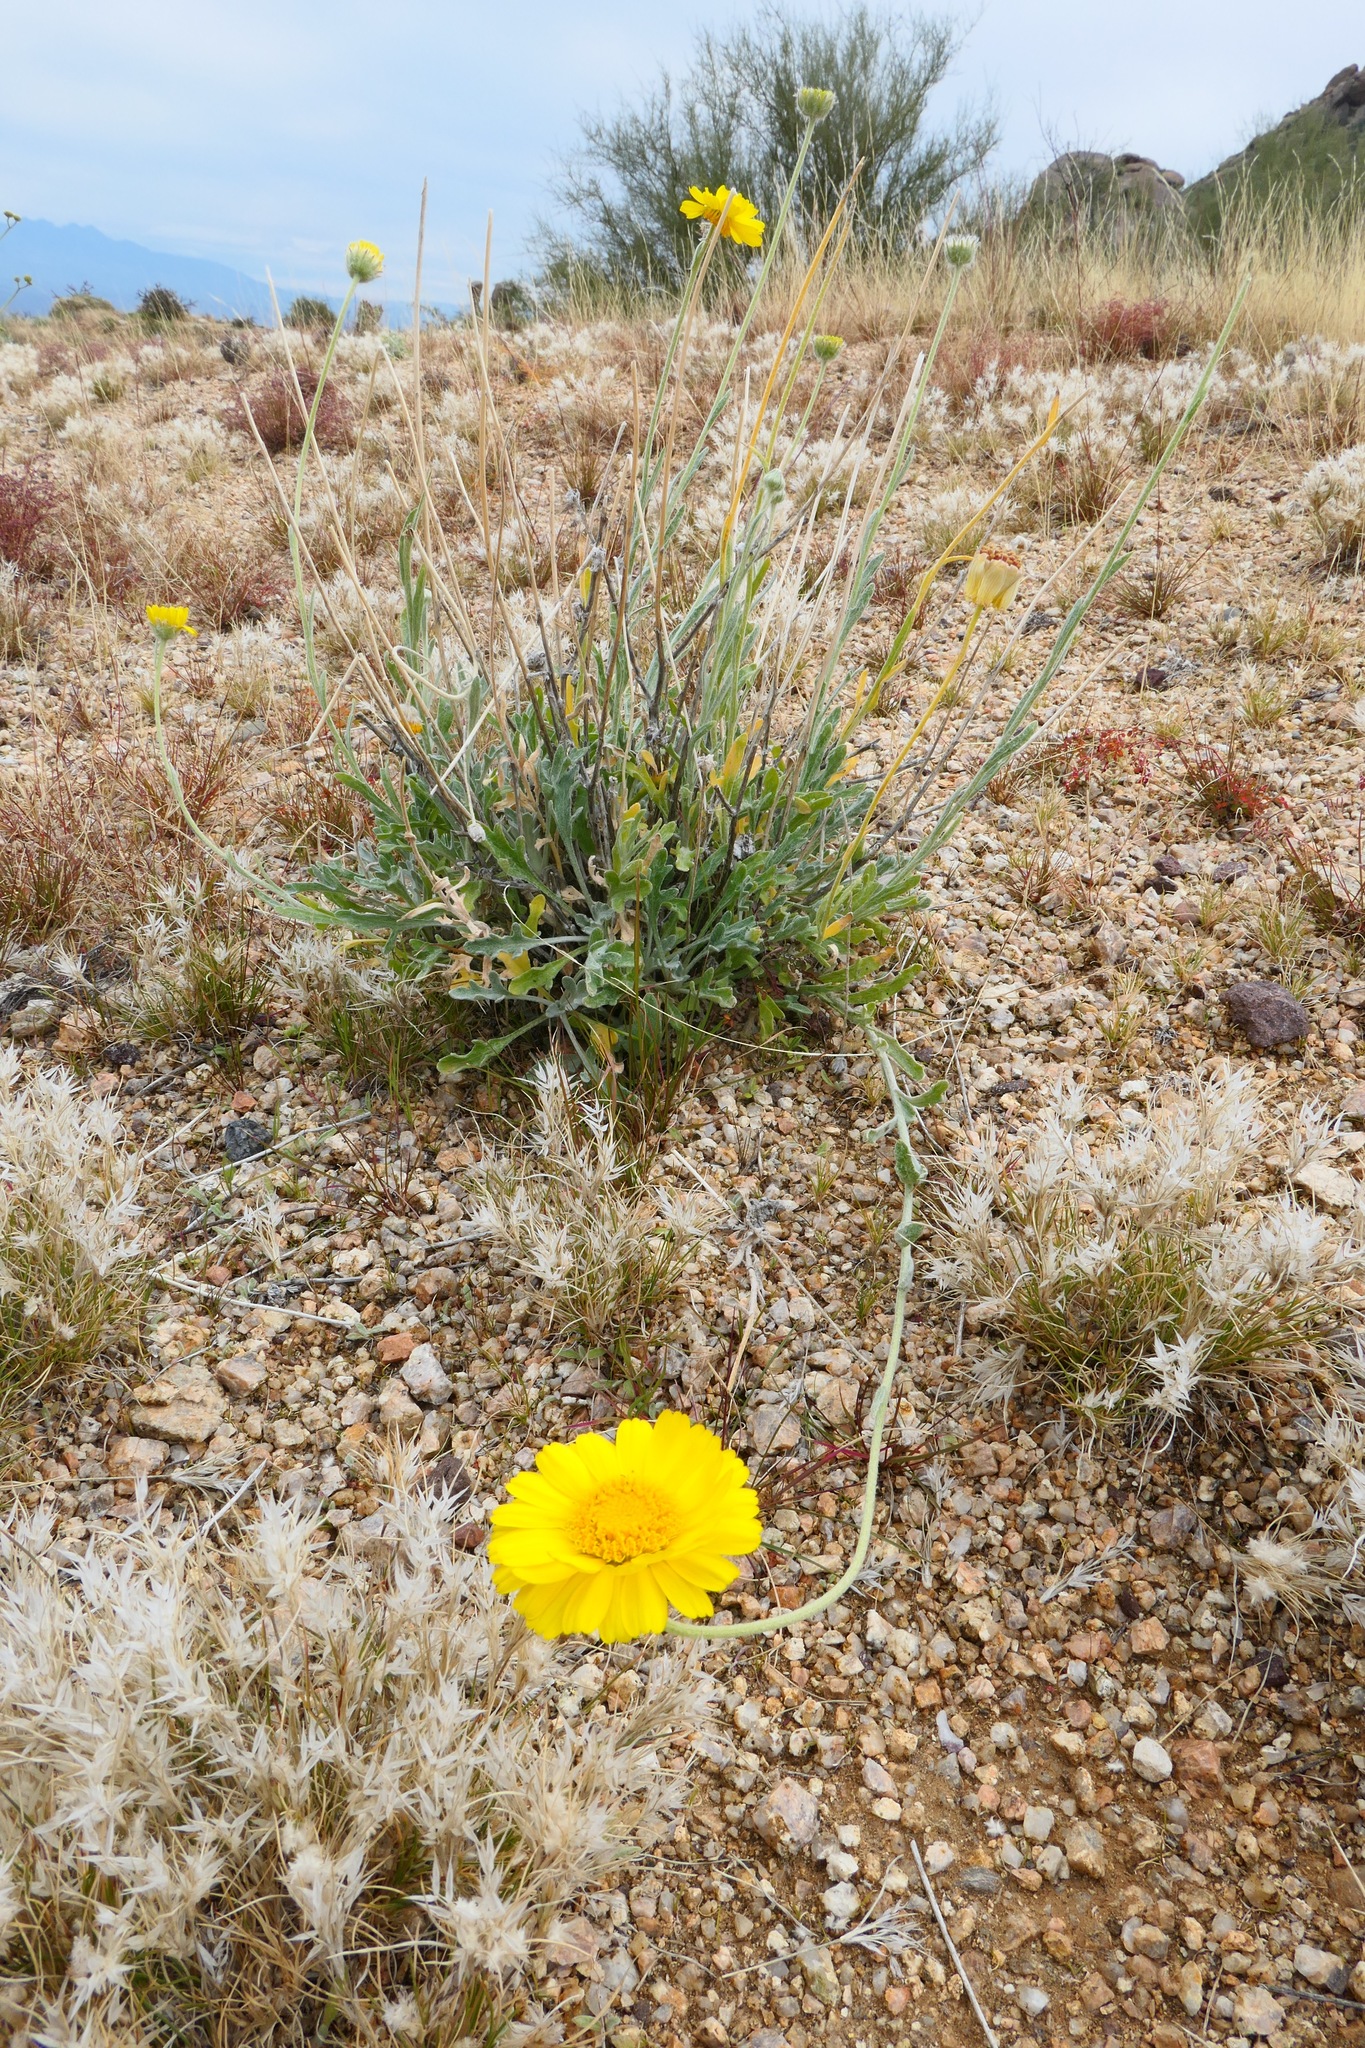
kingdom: Plantae
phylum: Tracheophyta
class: Magnoliopsida
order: Asterales
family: Asteraceae
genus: Baileya
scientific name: Baileya multiradiata
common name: Desert-marigold
